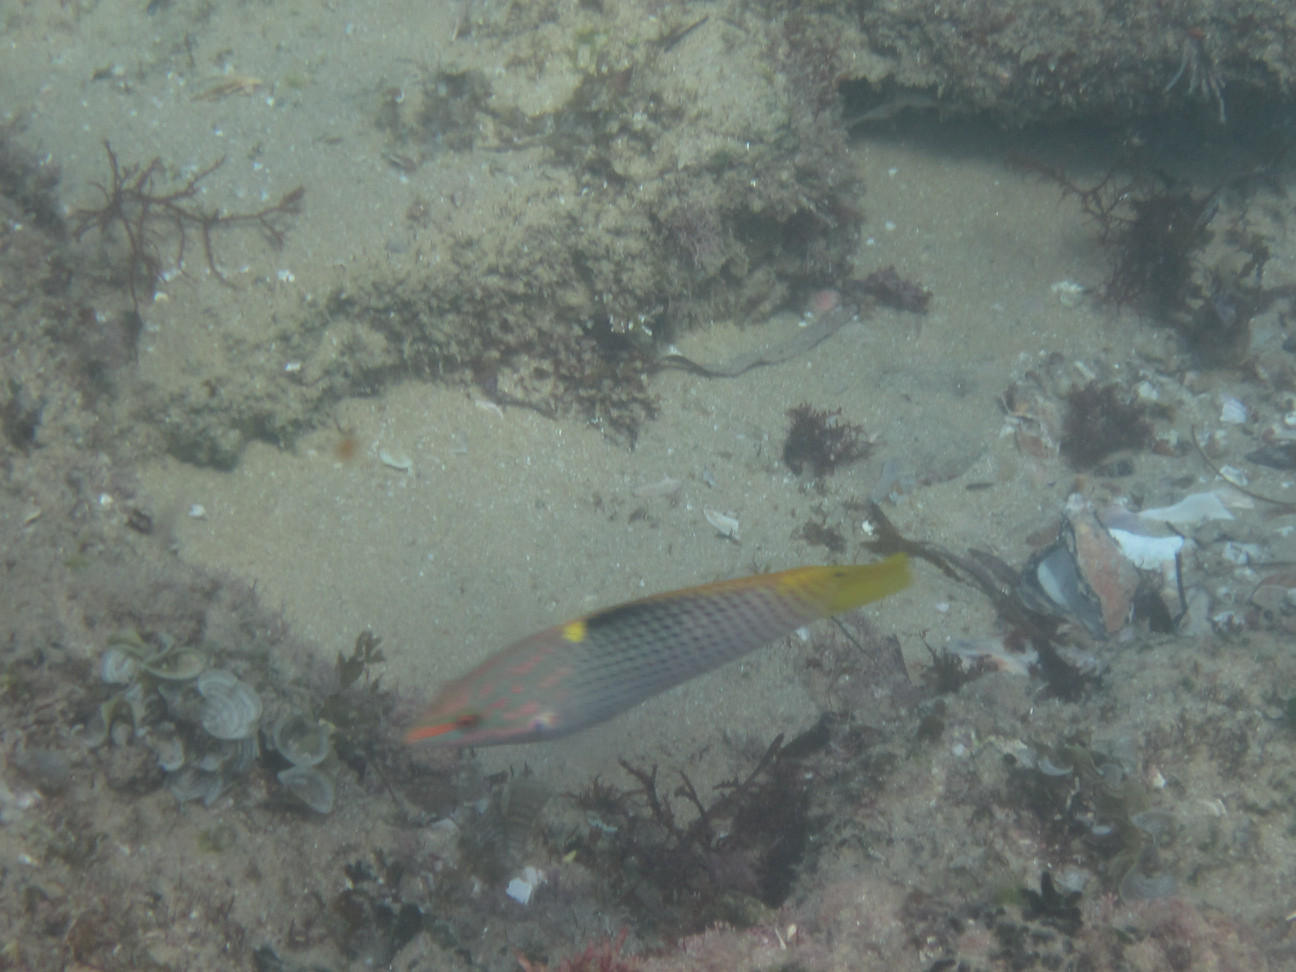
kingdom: Animalia
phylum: Chordata
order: Perciformes
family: Labridae
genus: Halichoeres
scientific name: Halichoeres hortulanus
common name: Checkerboard wrasse
